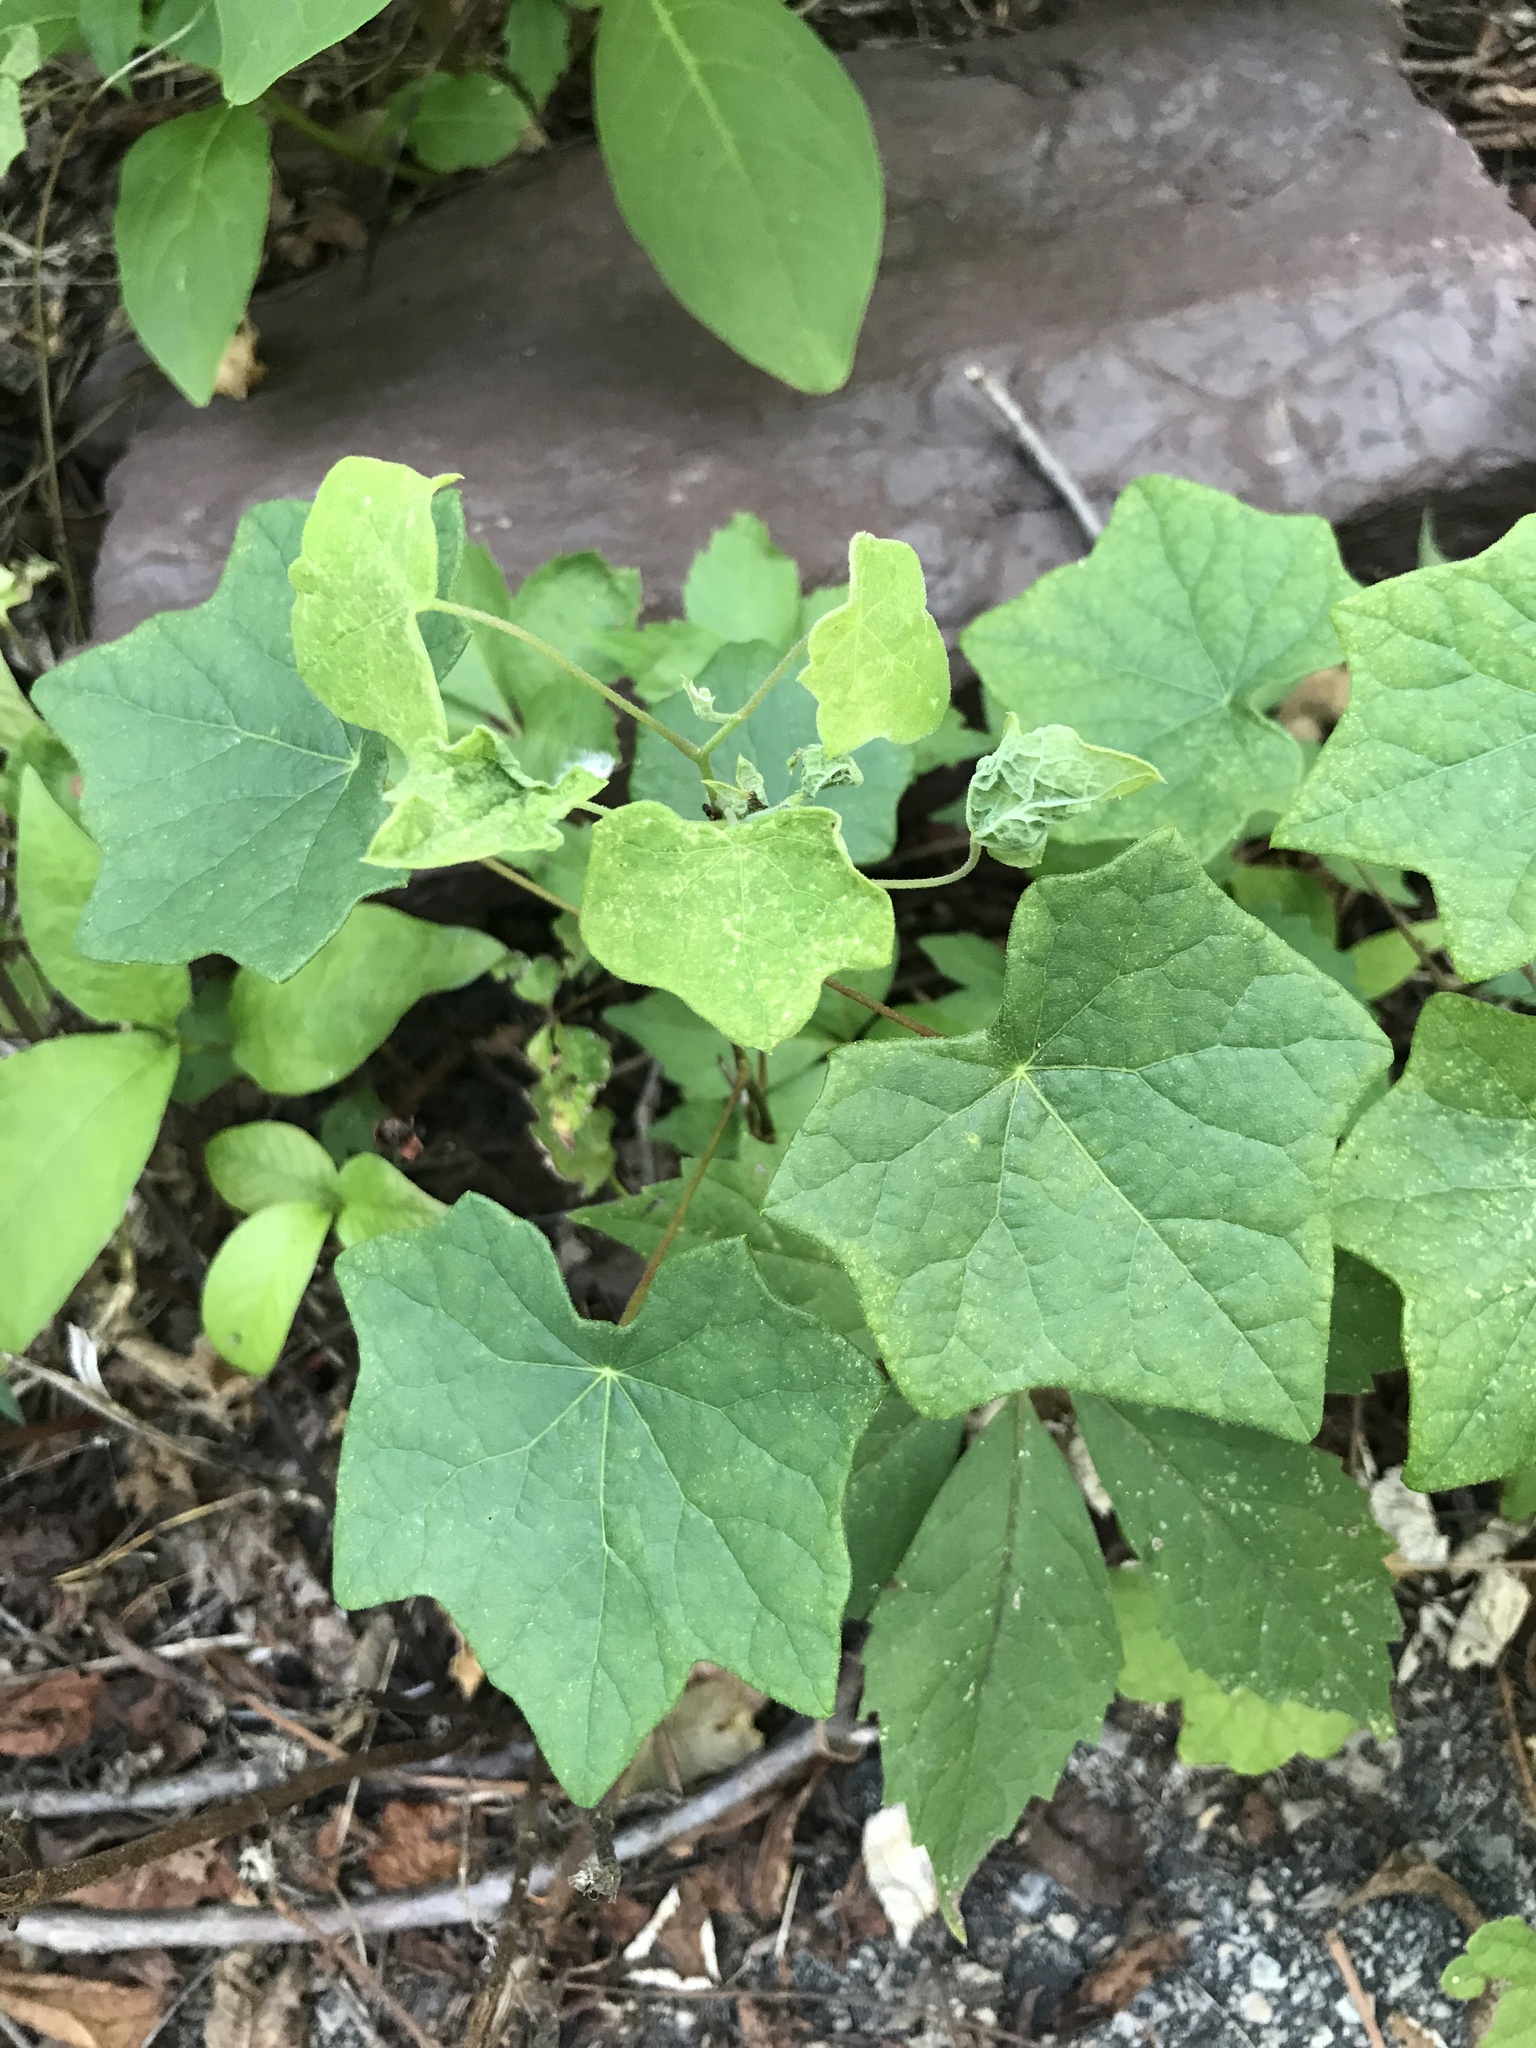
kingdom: Plantae
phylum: Tracheophyta
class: Magnoliopsida
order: Ranunculales
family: Menispermaceae
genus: Menispermum
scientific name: Menispermum canadense
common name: Moonseed
